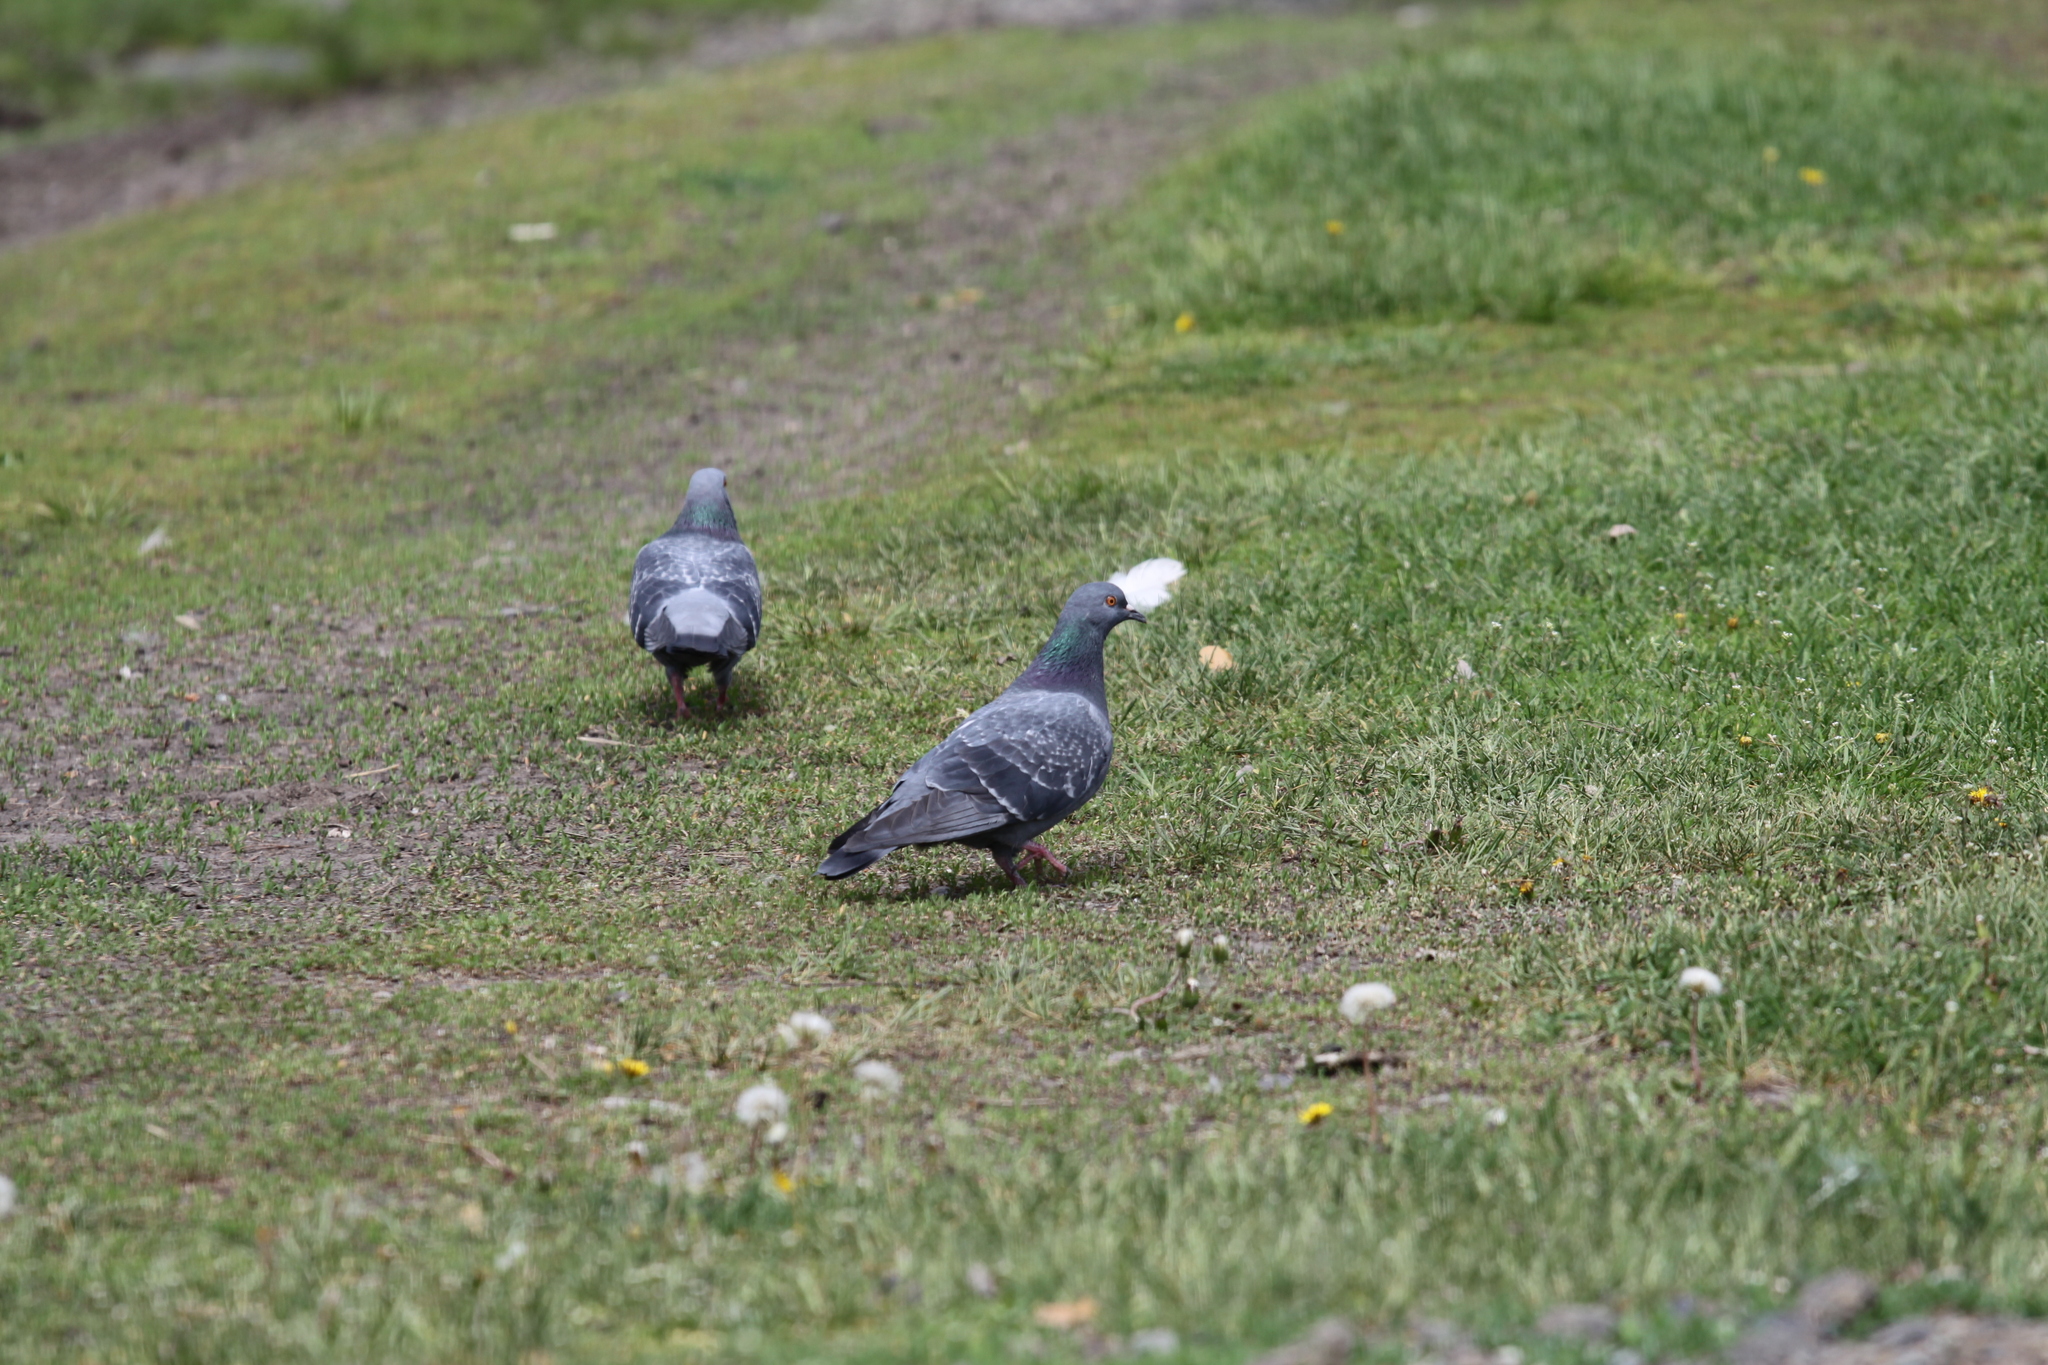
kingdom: Animalia
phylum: Chordata
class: Aves
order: Columbiformes
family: Columbidae
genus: Columba
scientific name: Columba livia
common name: Rock pigeon
